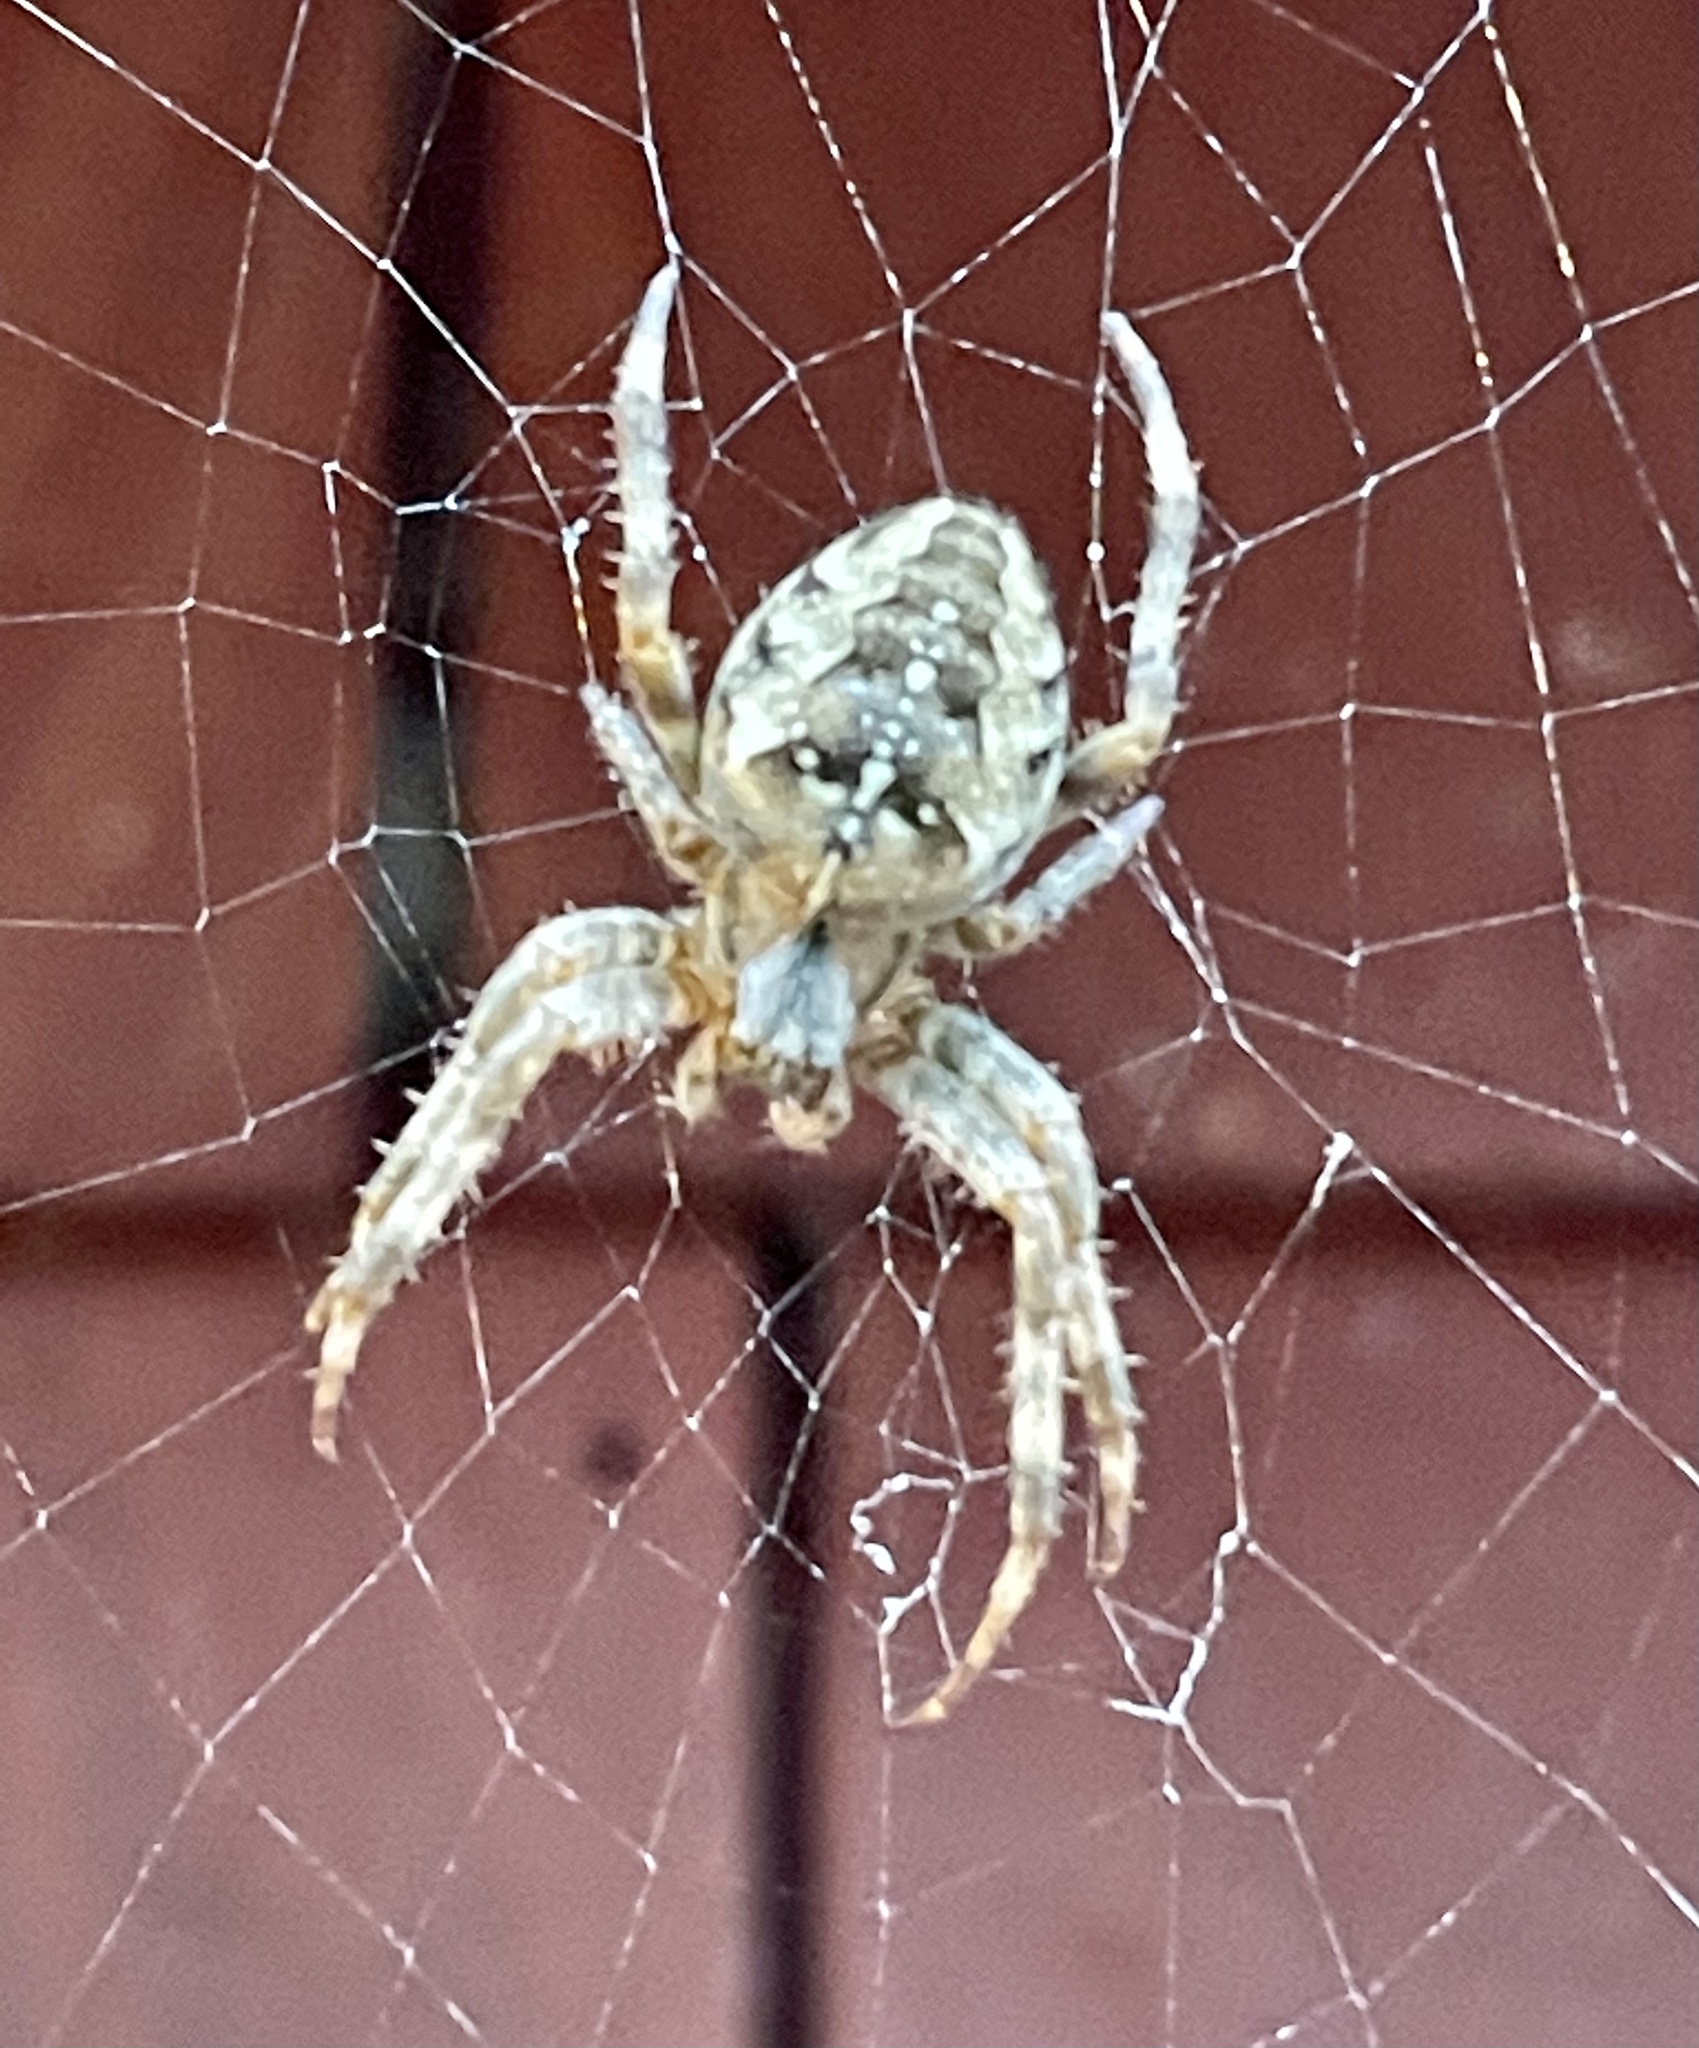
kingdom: Animalia
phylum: Arthropoda
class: Arachnida
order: Araneae
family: Araneidae
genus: Araneus
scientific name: Araneus diadematus
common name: Cross orbweaver
